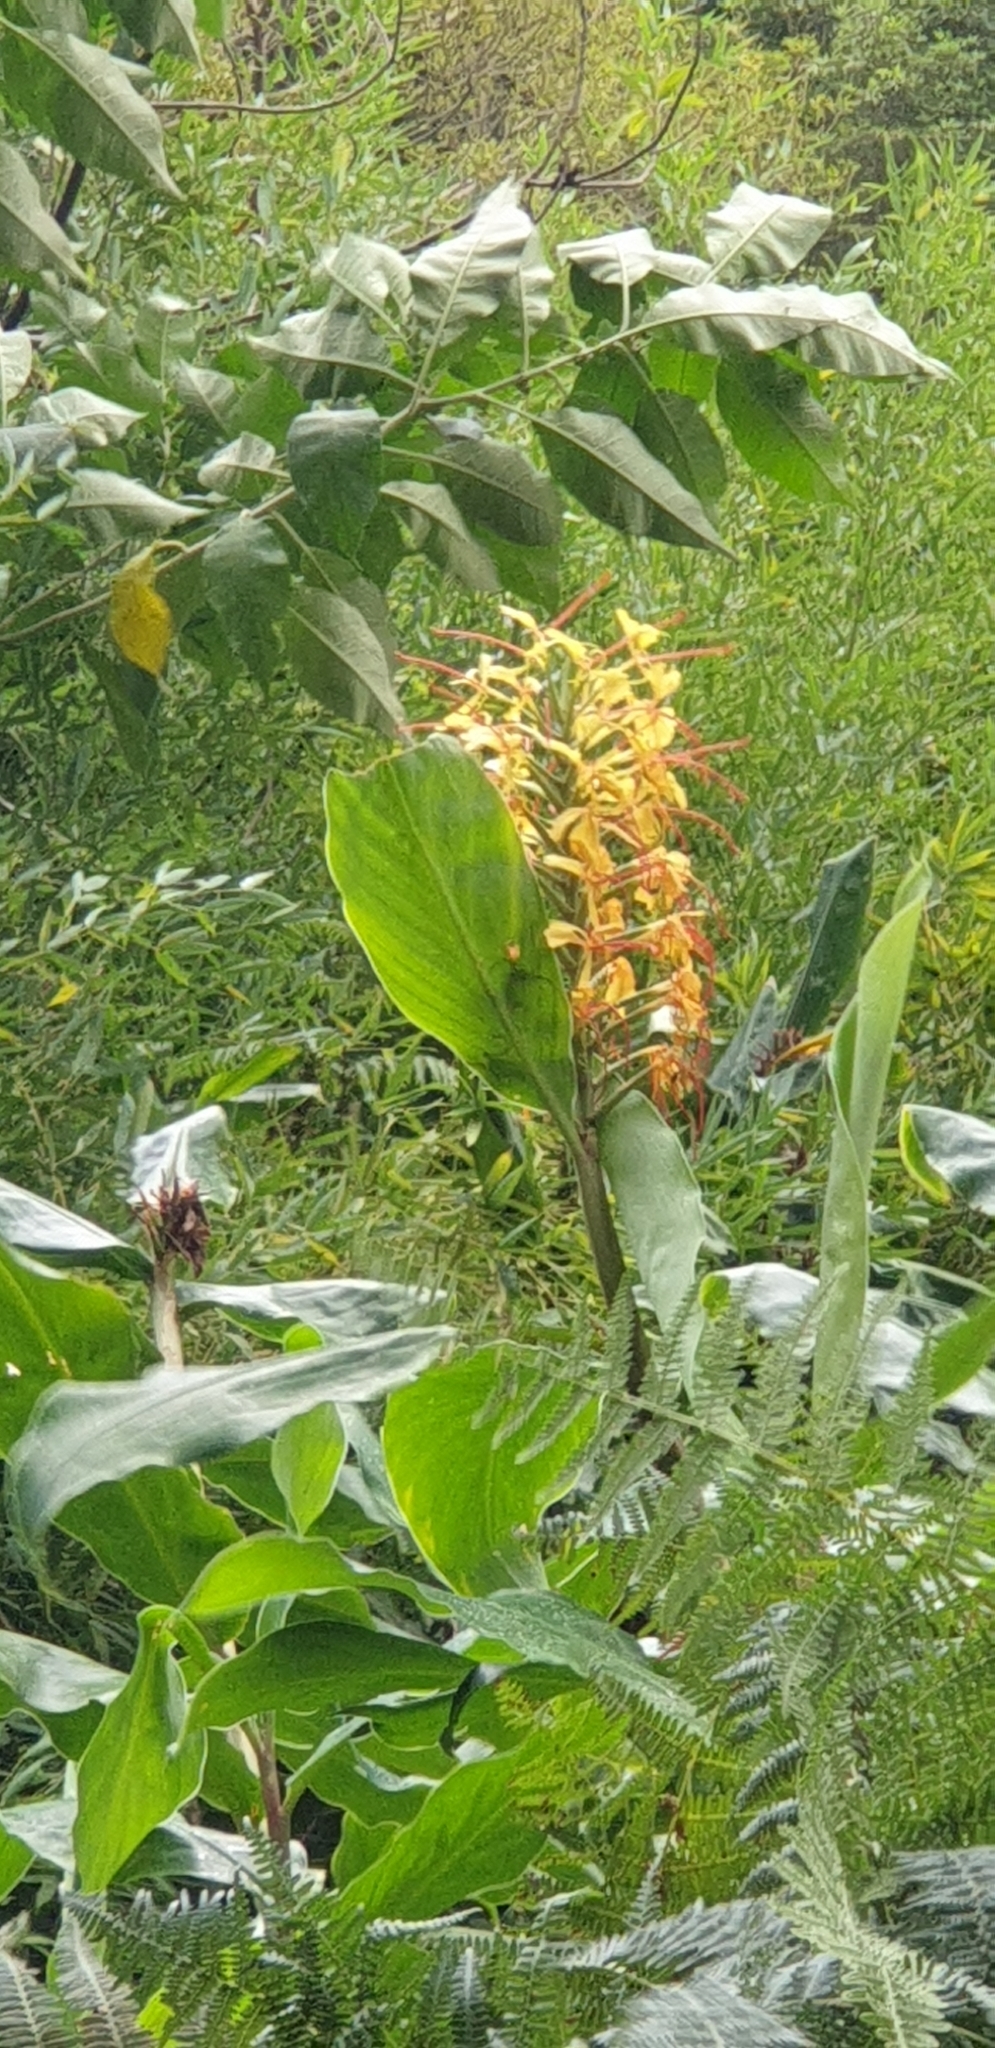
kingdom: Plantae
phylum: Tracheophyta
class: Liliopsida
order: Zingiberales
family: Zingiberaceae
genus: Hedychium
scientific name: Hedychium gardnerianum
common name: Himalayan ginger
